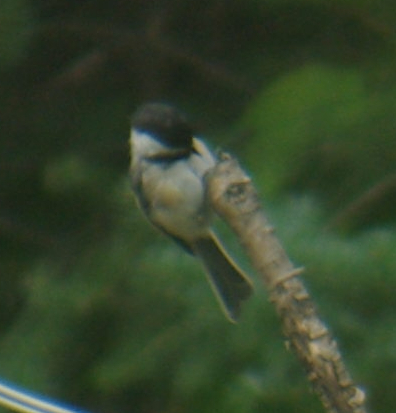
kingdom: Animalia
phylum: Chordata
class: Aves
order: Passeriformes
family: Paridae
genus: Poecile
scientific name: Poecile atricapillus
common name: Black-capped chickadee
